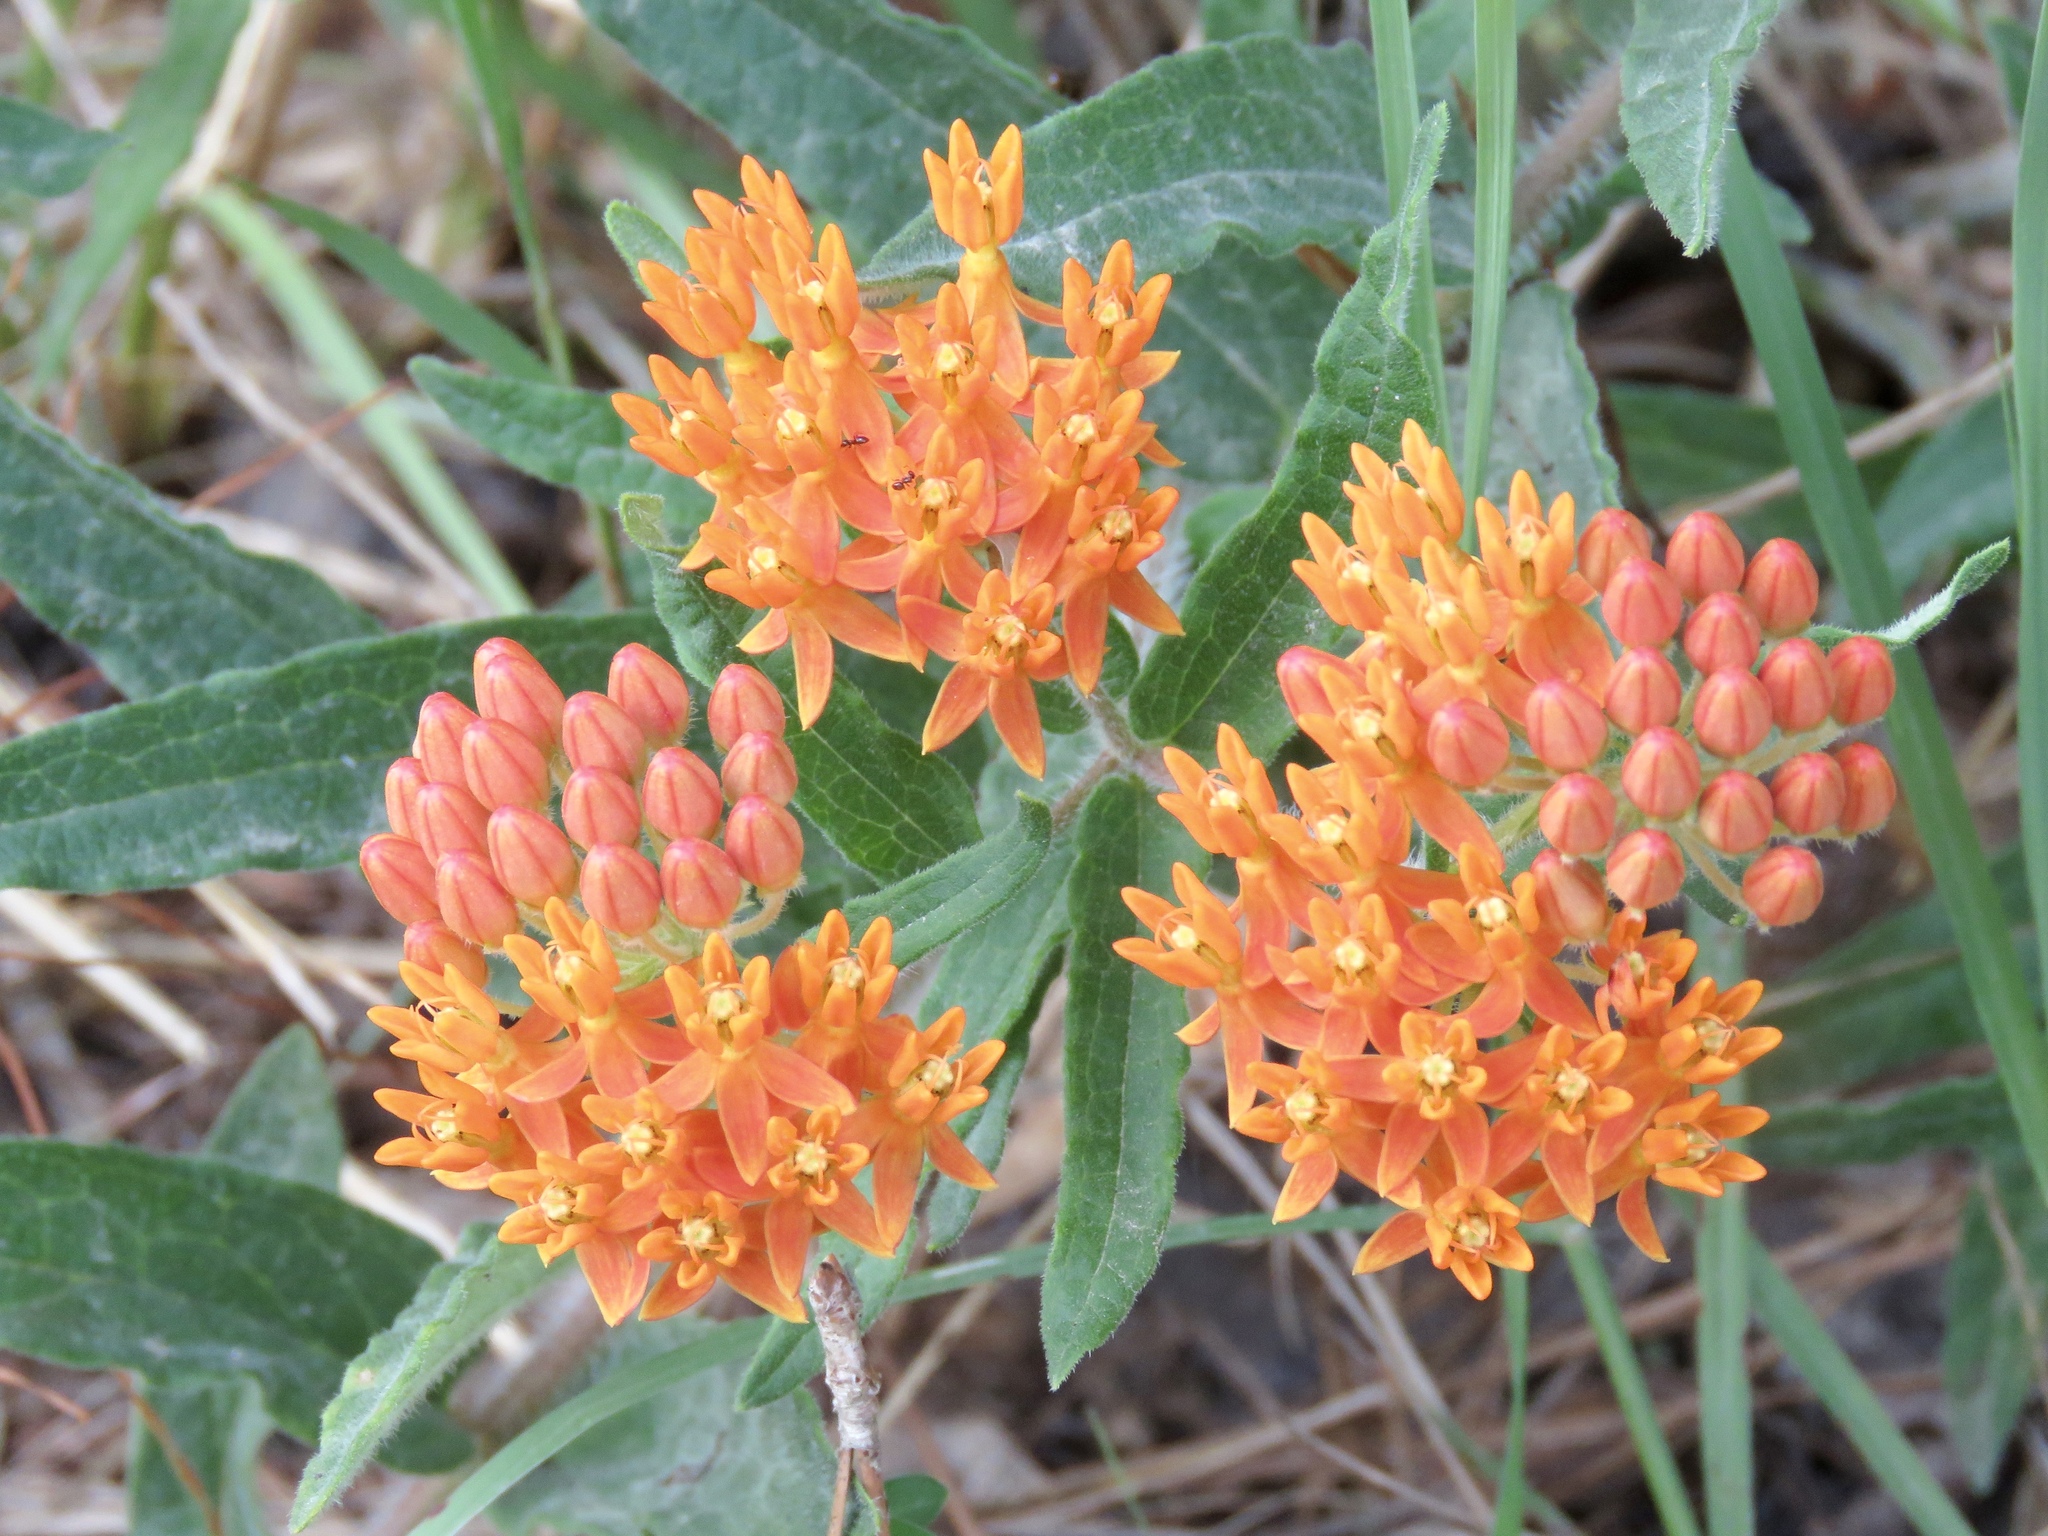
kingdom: Plantae
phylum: Tracheophyta
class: Magnoliopsida
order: Gentianales
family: Apocynaceae
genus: Asclepias
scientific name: Asclepias tuberosa
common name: Butterfly milkweed
